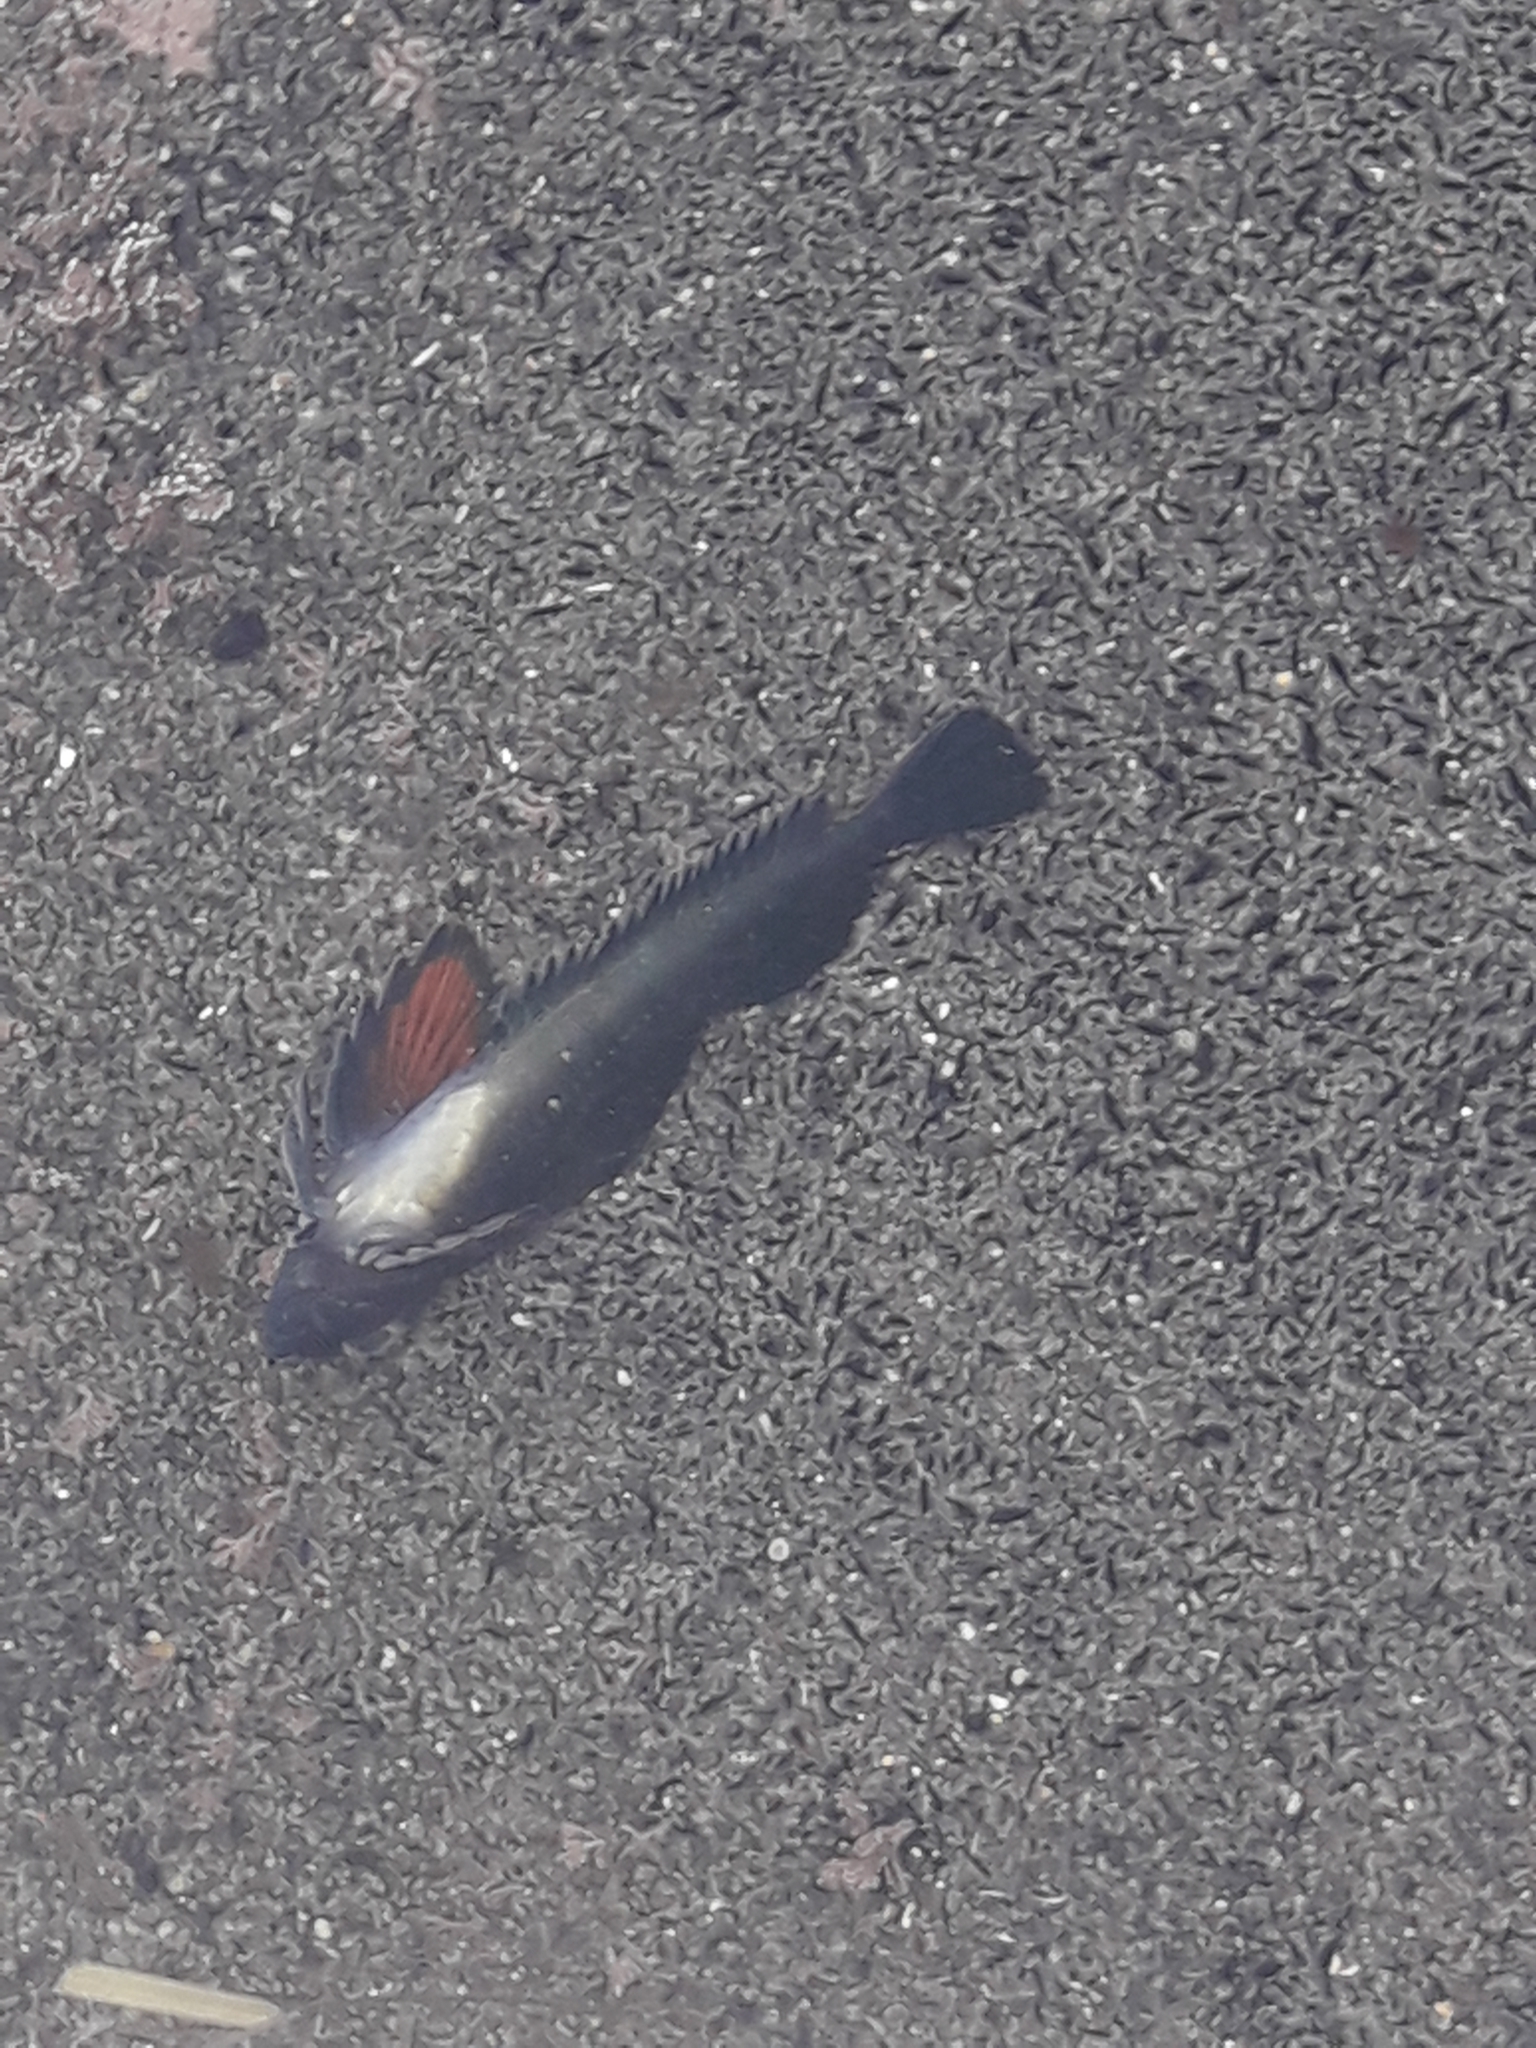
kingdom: Animalia
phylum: Chordata
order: Perciformes
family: Tripterygiidae
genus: Bellapiscis
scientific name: Bellapiscis lesleyae
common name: Mottled twister
